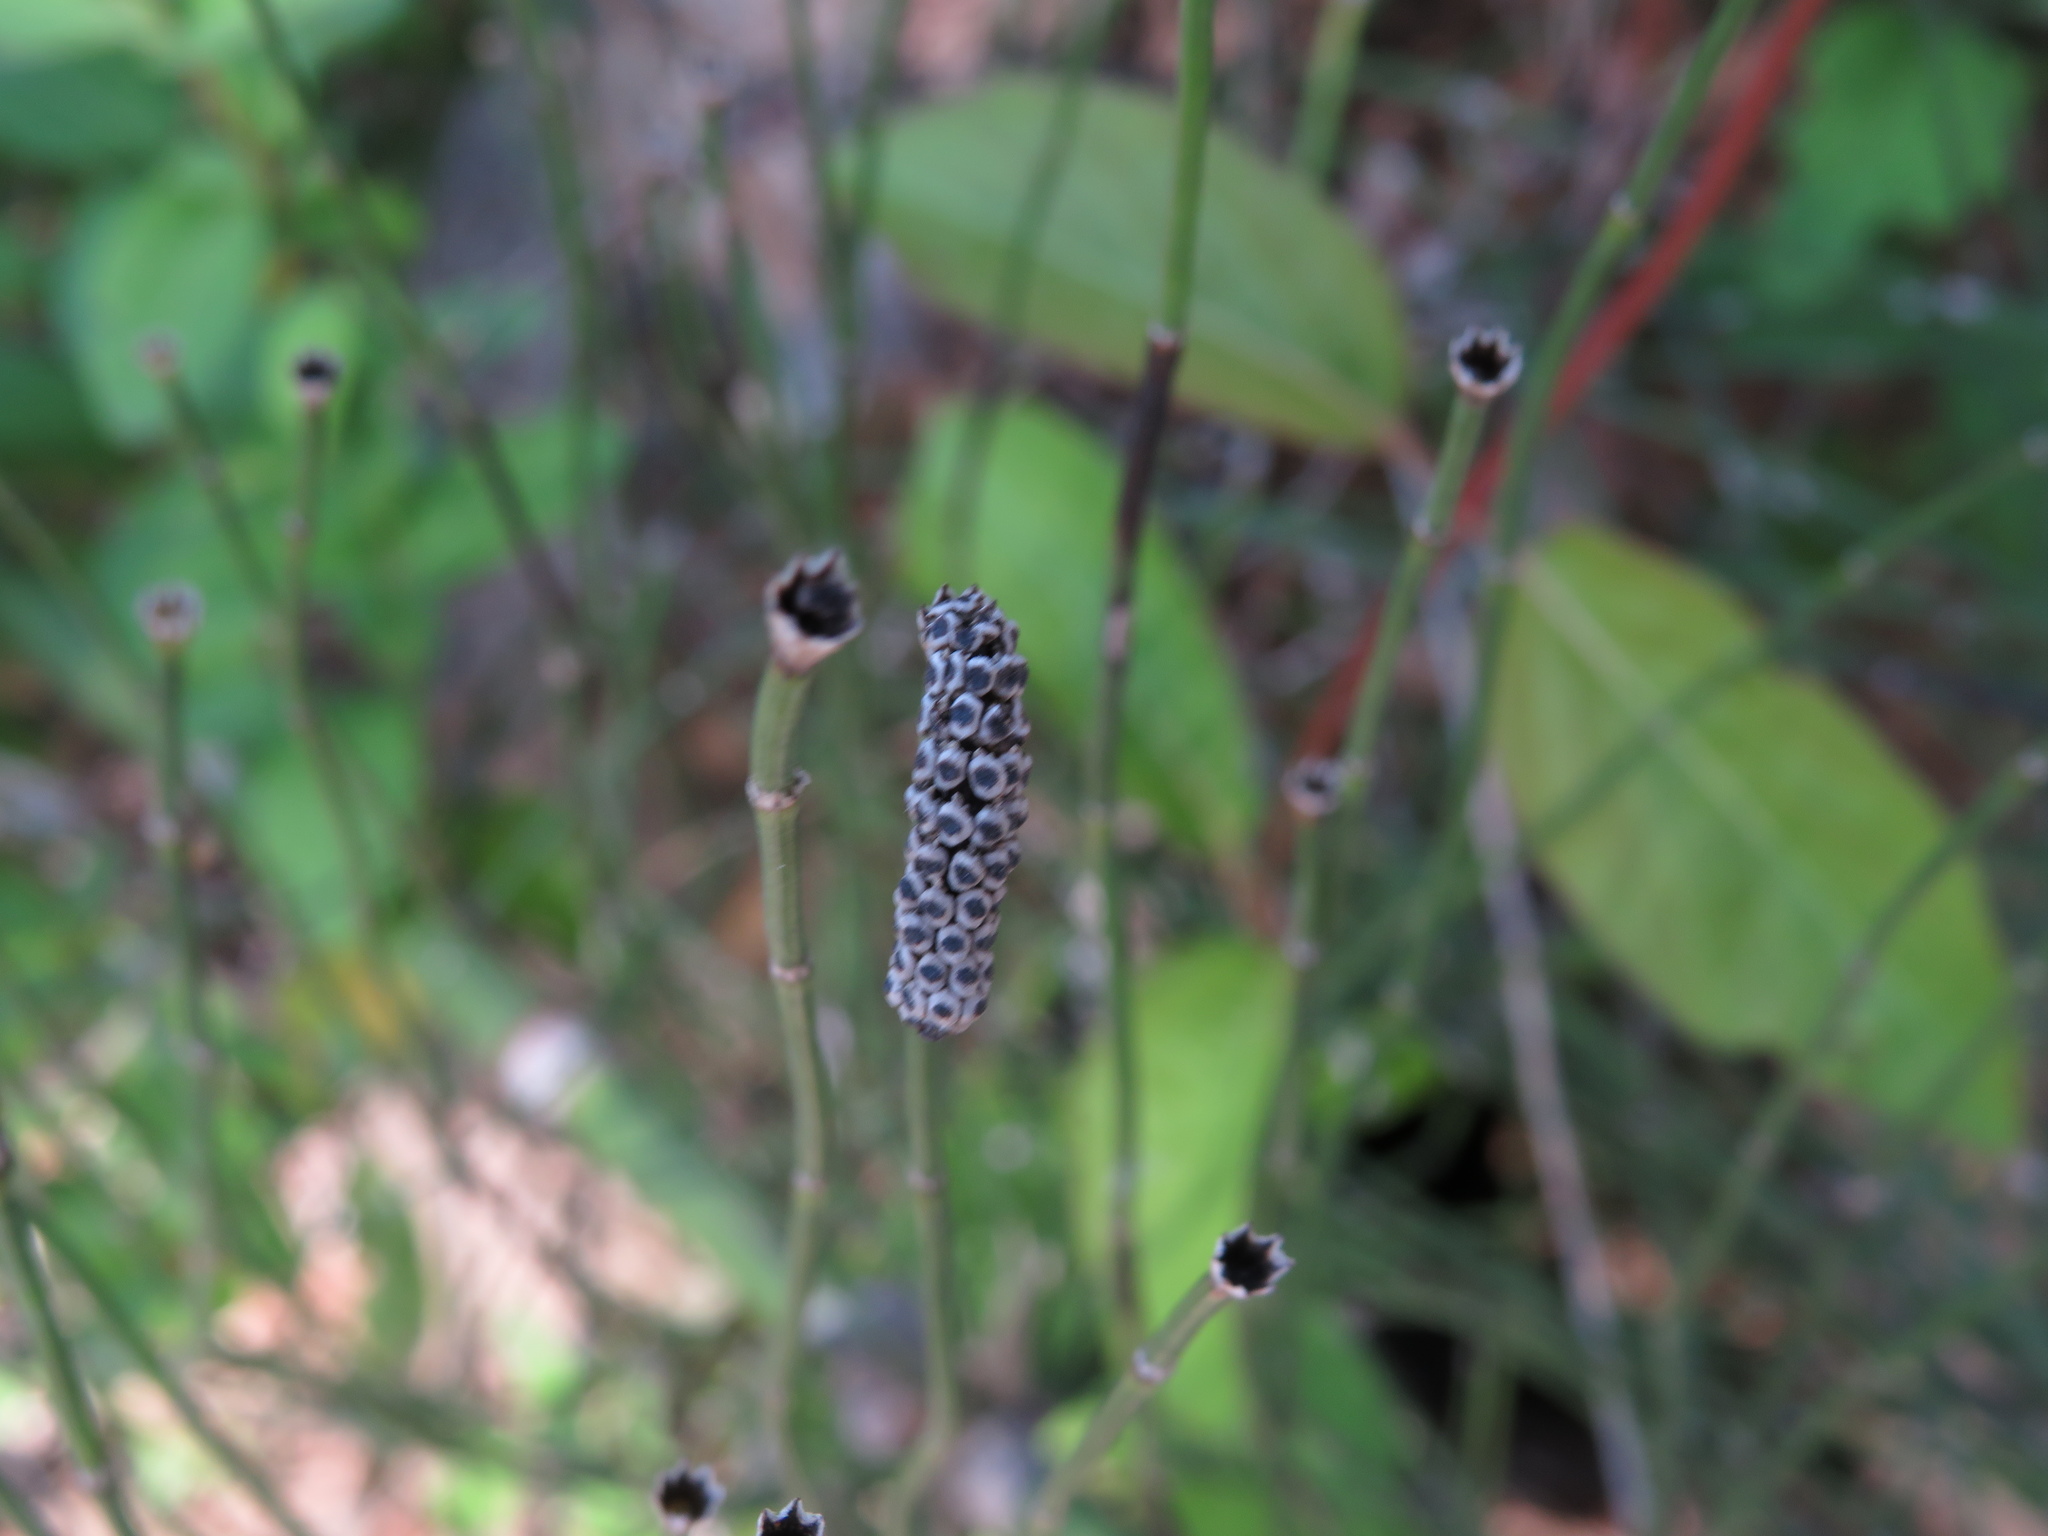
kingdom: Plantae
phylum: Tracheophyta
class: Polypodiopsida
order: Equisetales
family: Equisetaceae
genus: Equisetum
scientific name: Equisetum giganteum
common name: Giant horsetail
